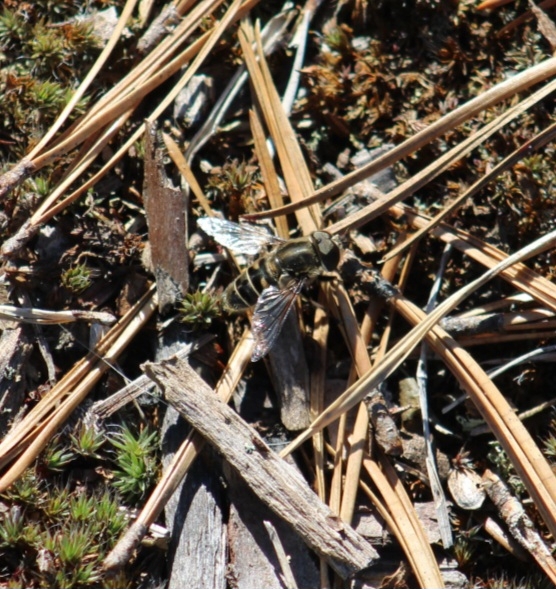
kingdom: Animalia
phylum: Arthropoda
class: Insecta
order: Diptera
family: Syrphidae
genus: Eristalis
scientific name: Eristalis dimidiata
